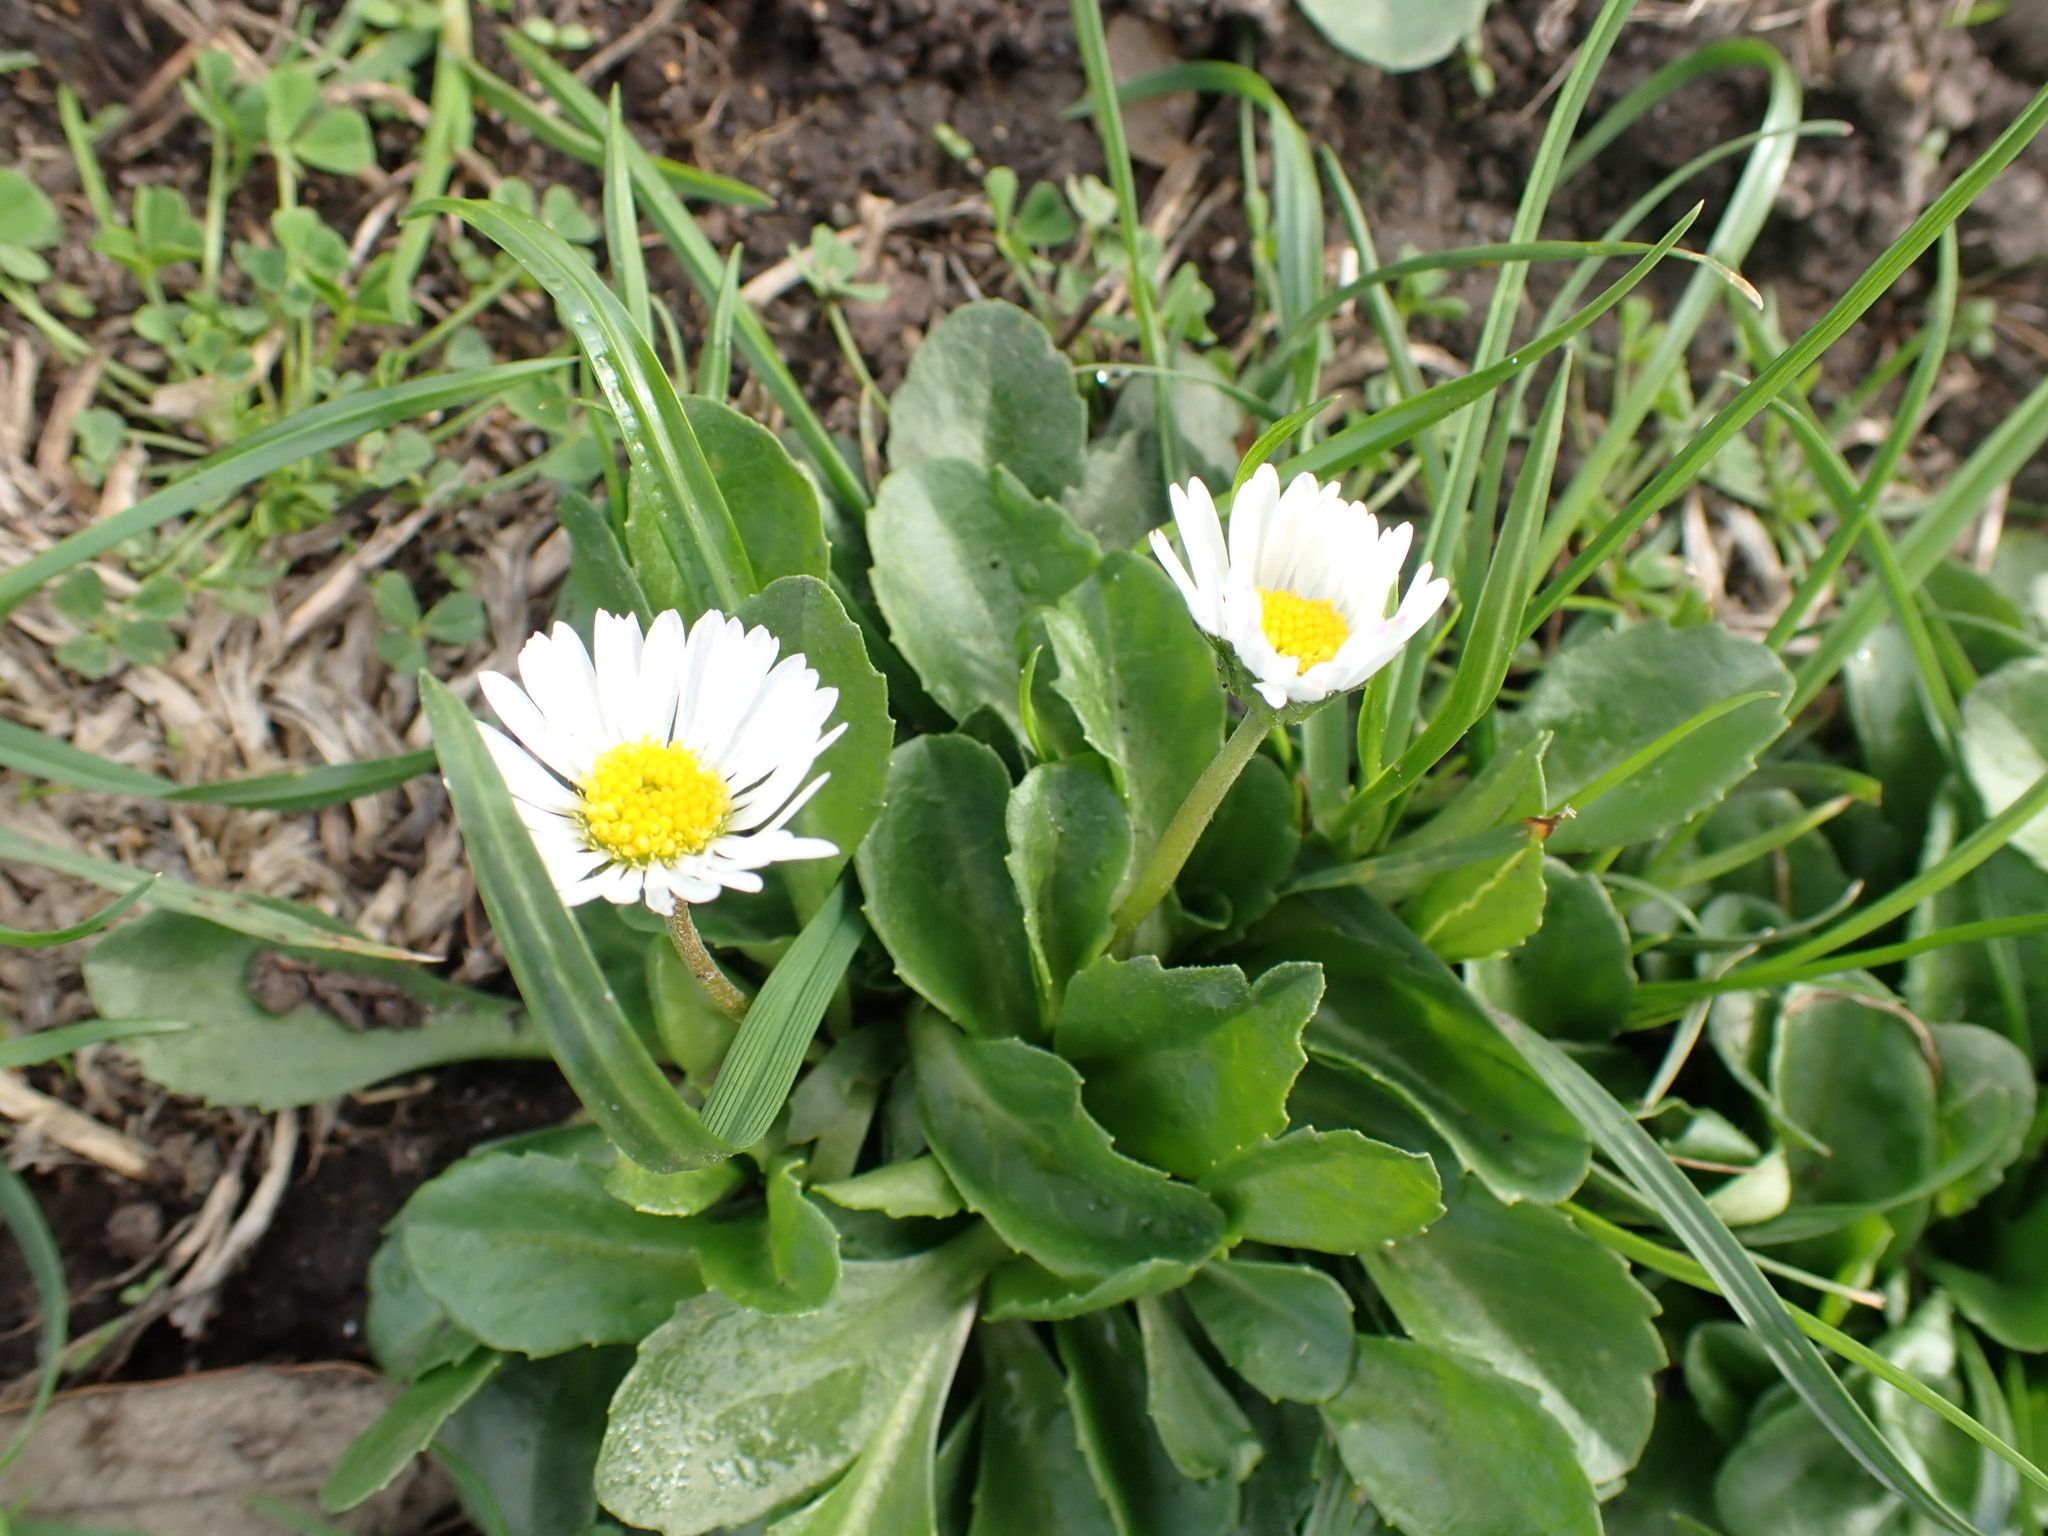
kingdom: Plantae
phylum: Tracheophyta
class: Magnoliopsida
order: Asterales
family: Asteraceae
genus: Bellis
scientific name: Bellis perennis
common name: Lawndaisy
